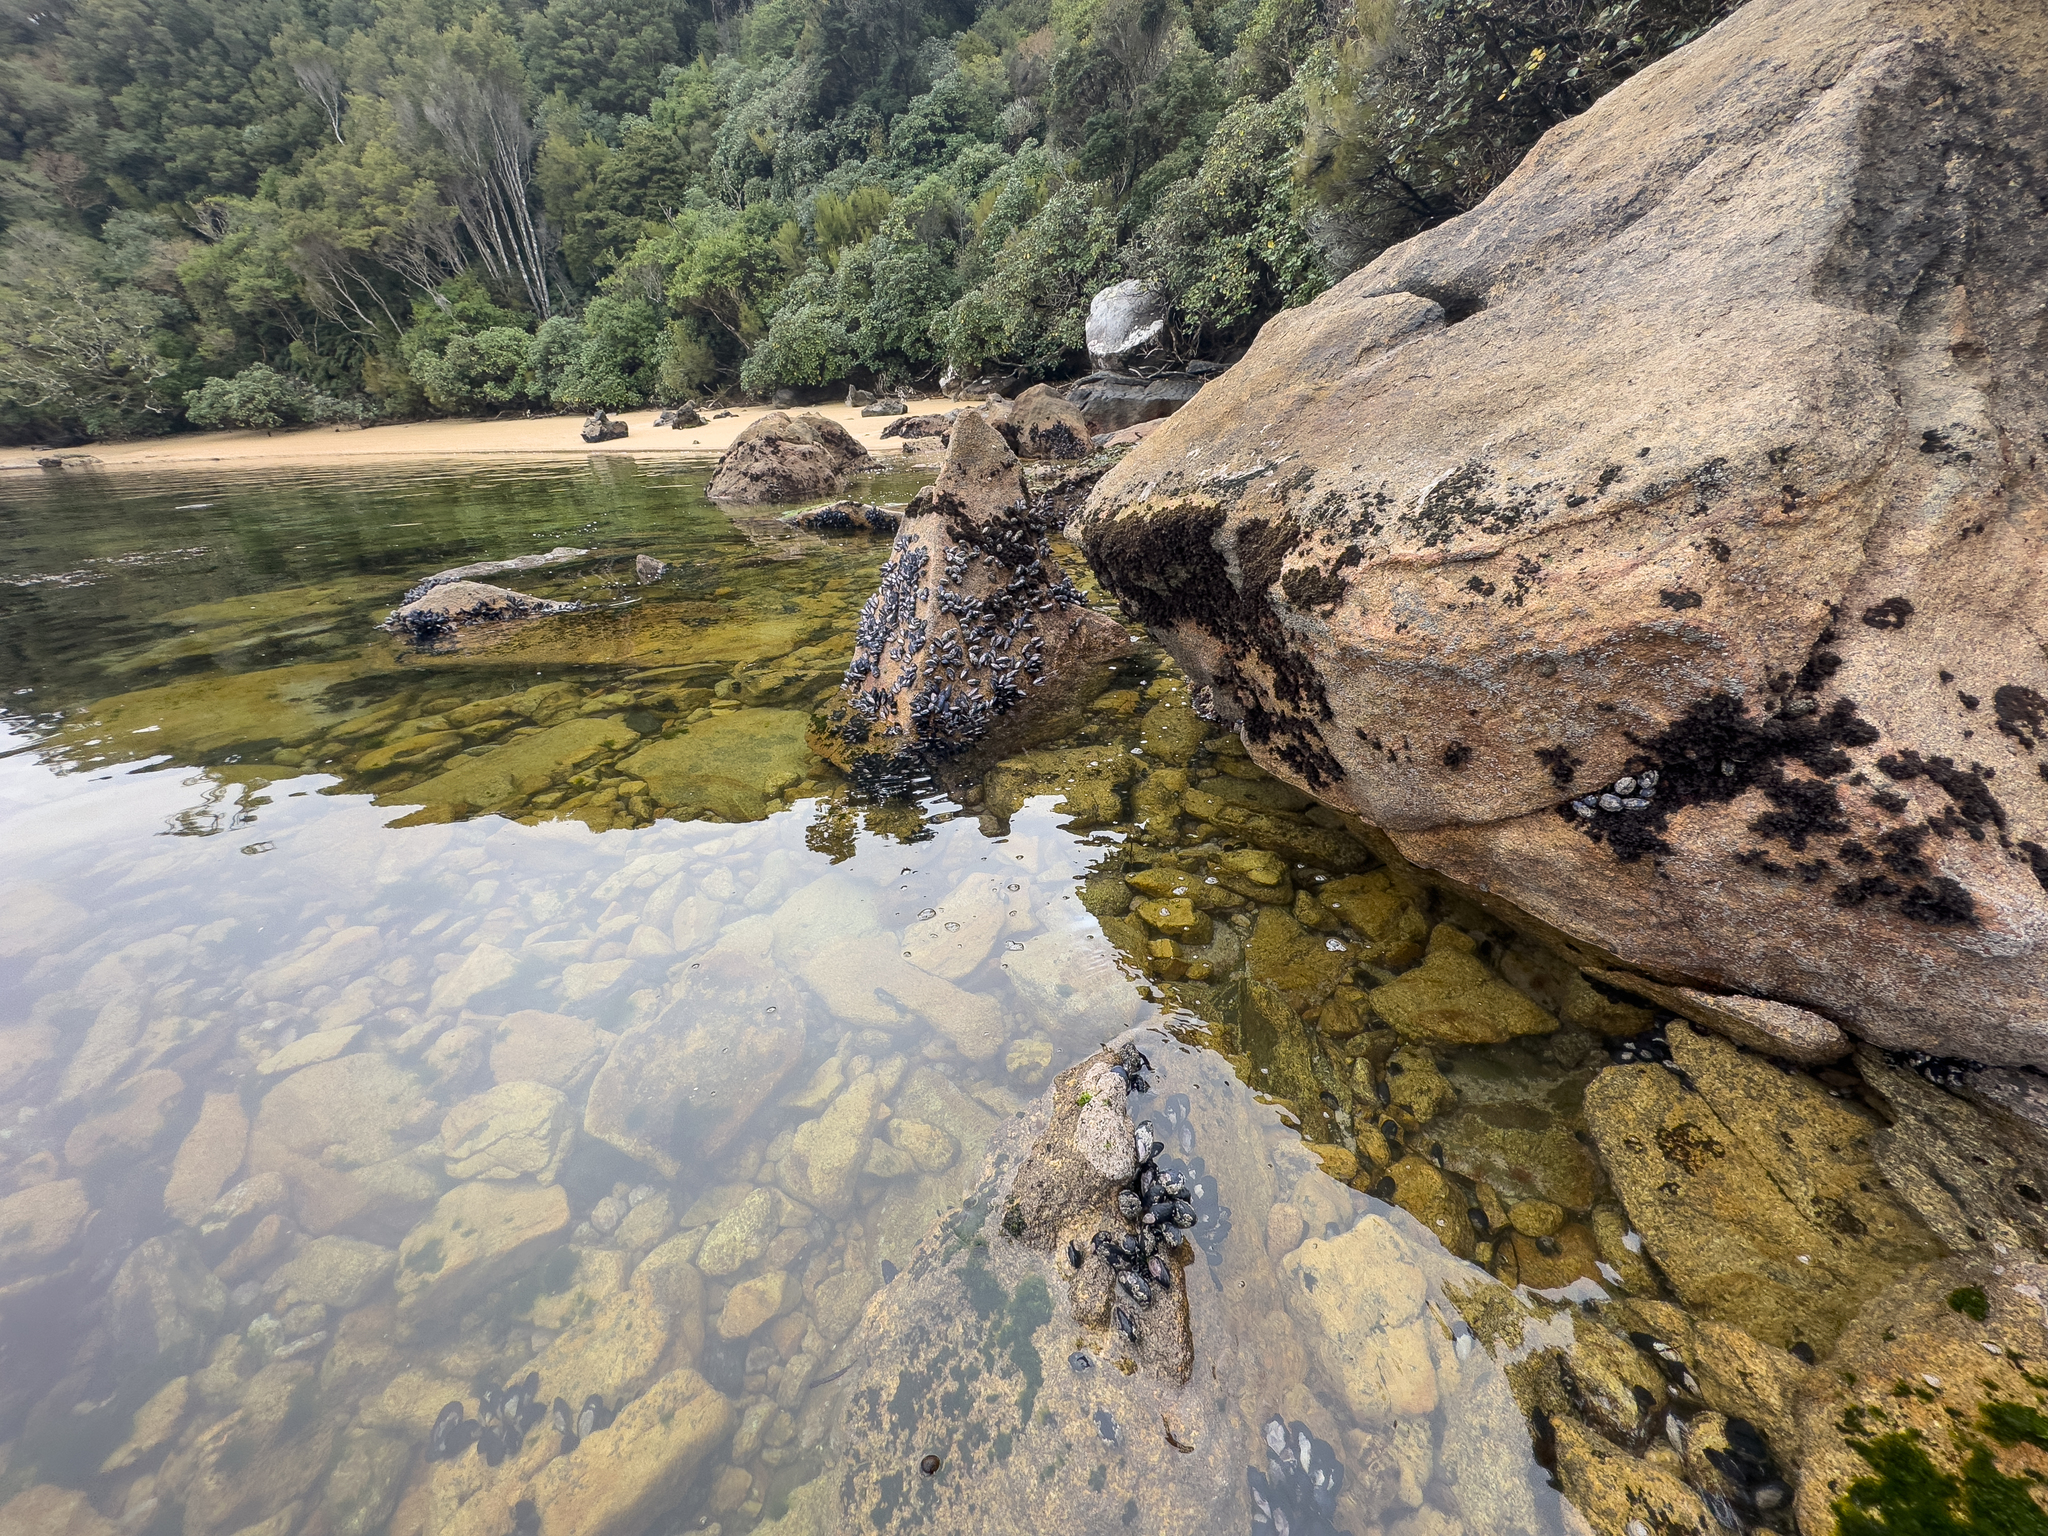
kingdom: Animalia
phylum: Mollusca
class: Bivalvia
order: Mytilida
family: Mytilidae
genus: Mytilus
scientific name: Mytilus planulatus
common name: Australian mussel
